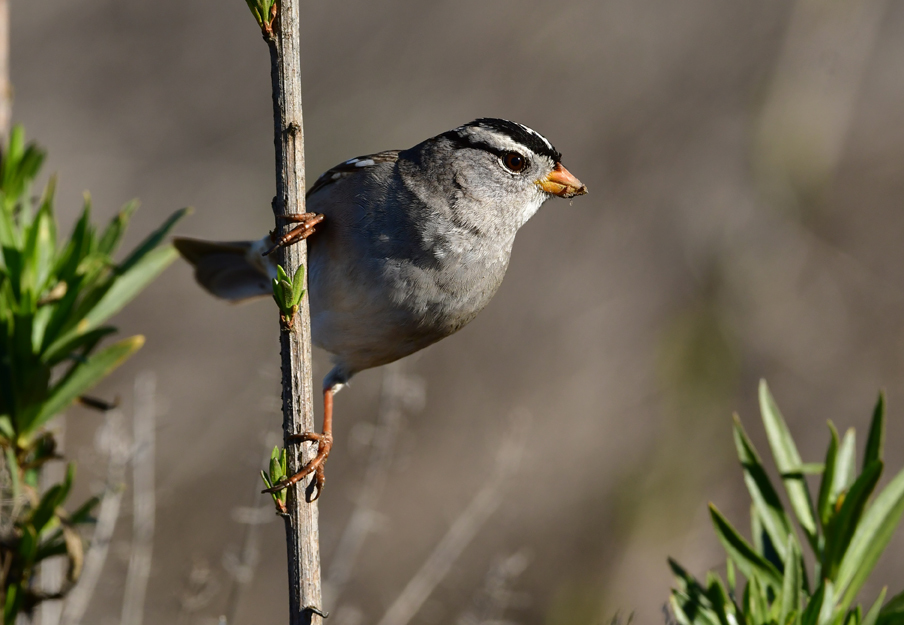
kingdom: Animalia
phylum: Chordata
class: Aves
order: Passeriformes
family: Passerellidae
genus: Zonotrichia
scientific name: Zonotrichia leucophrys
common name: White-crowned sparrow
